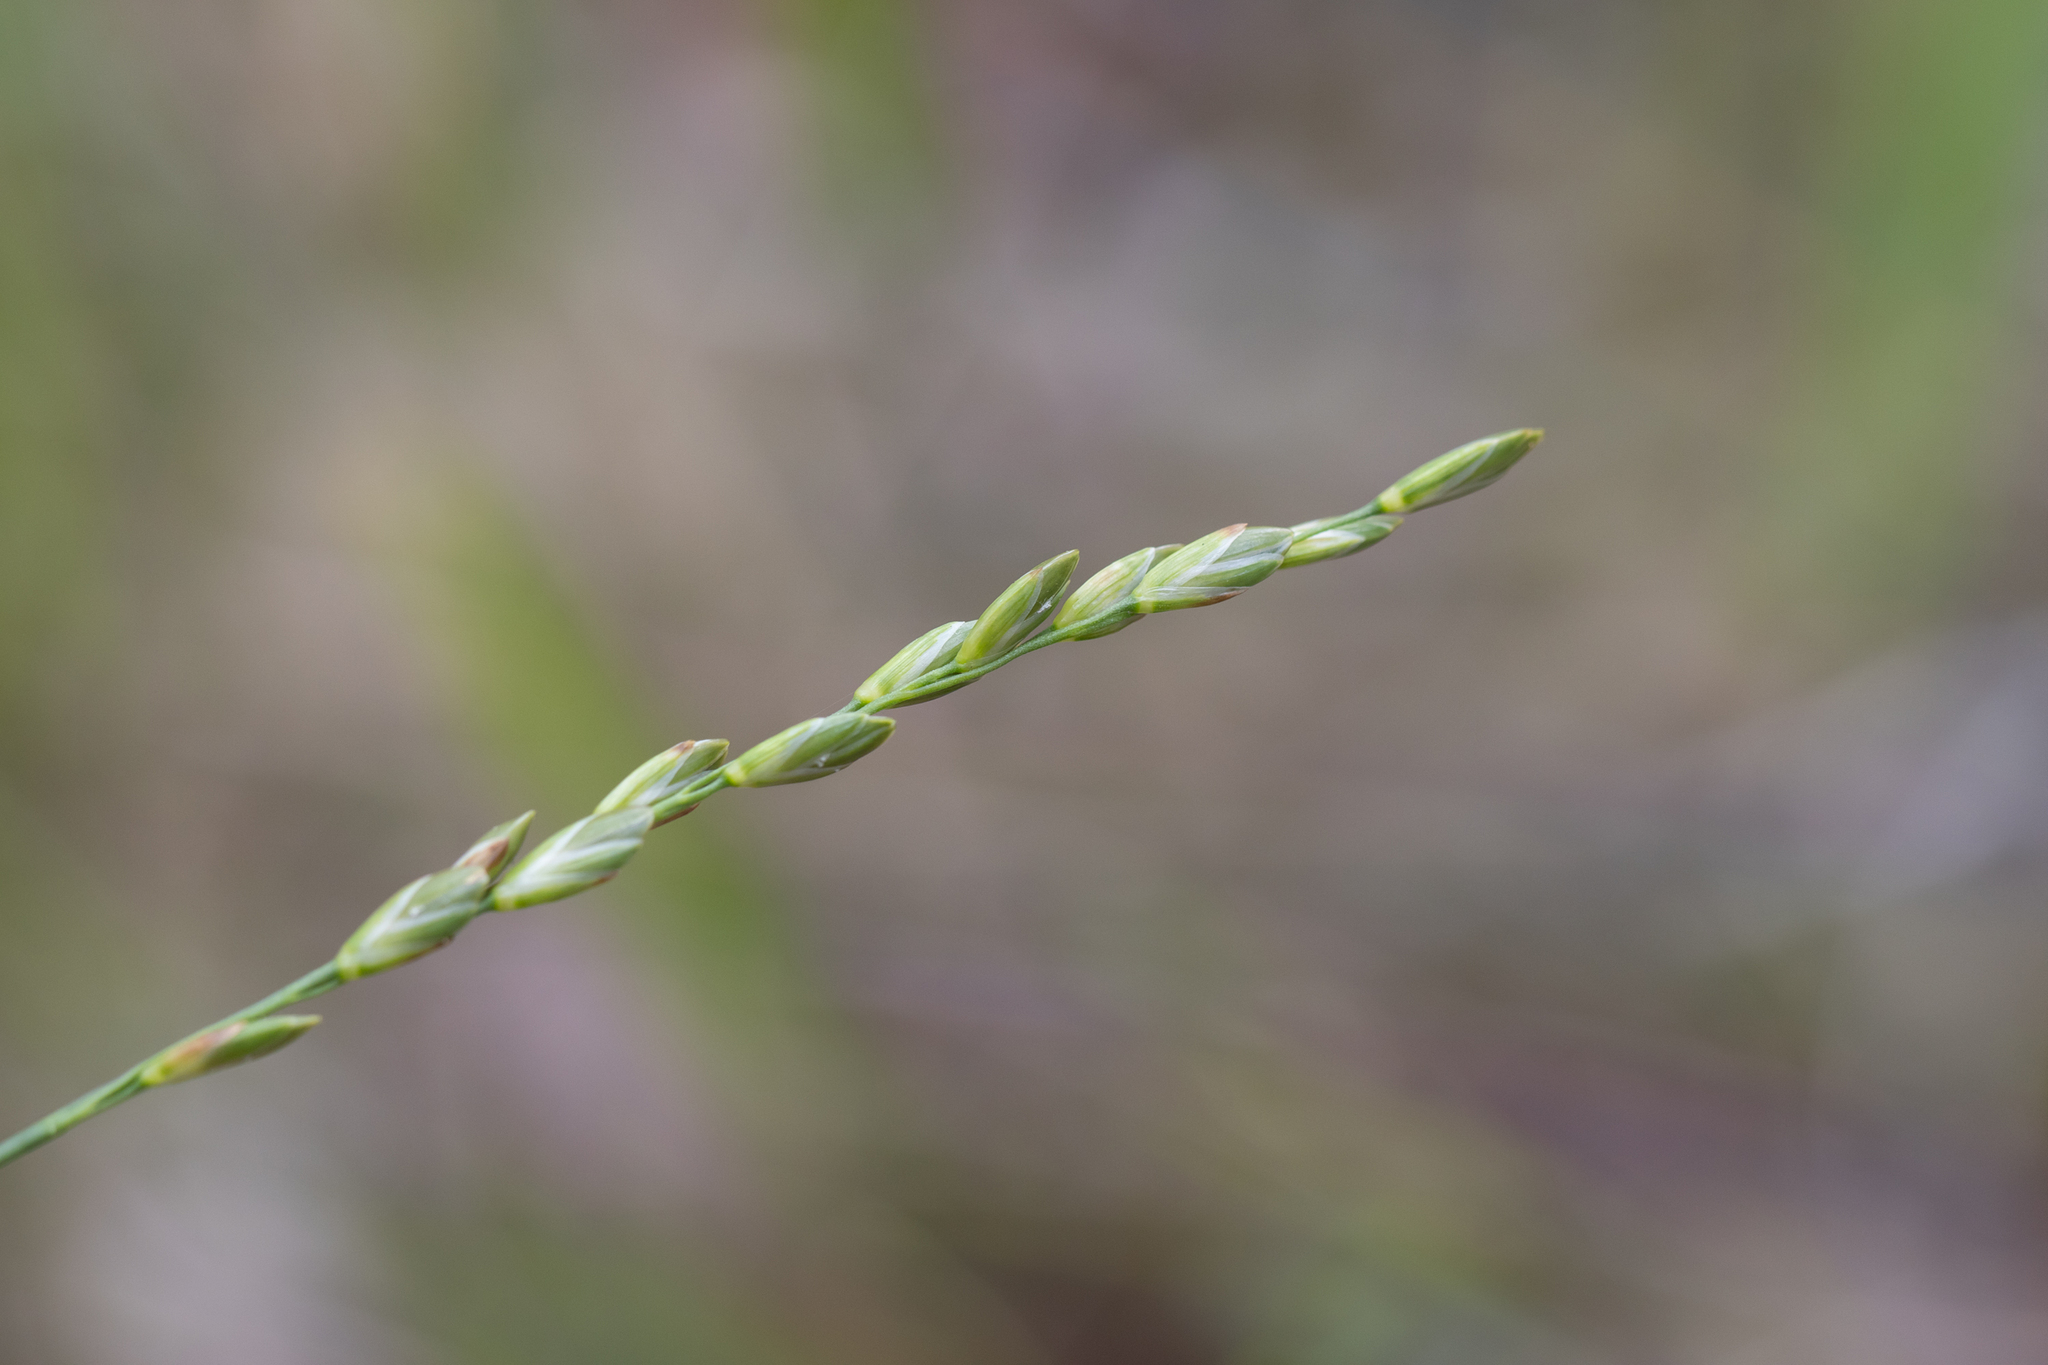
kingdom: Plantae
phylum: Tracheophyta
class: Liliopsida
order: Poales
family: Poaceae
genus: Tetrarrhena
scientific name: Tetrarrhena laevis
